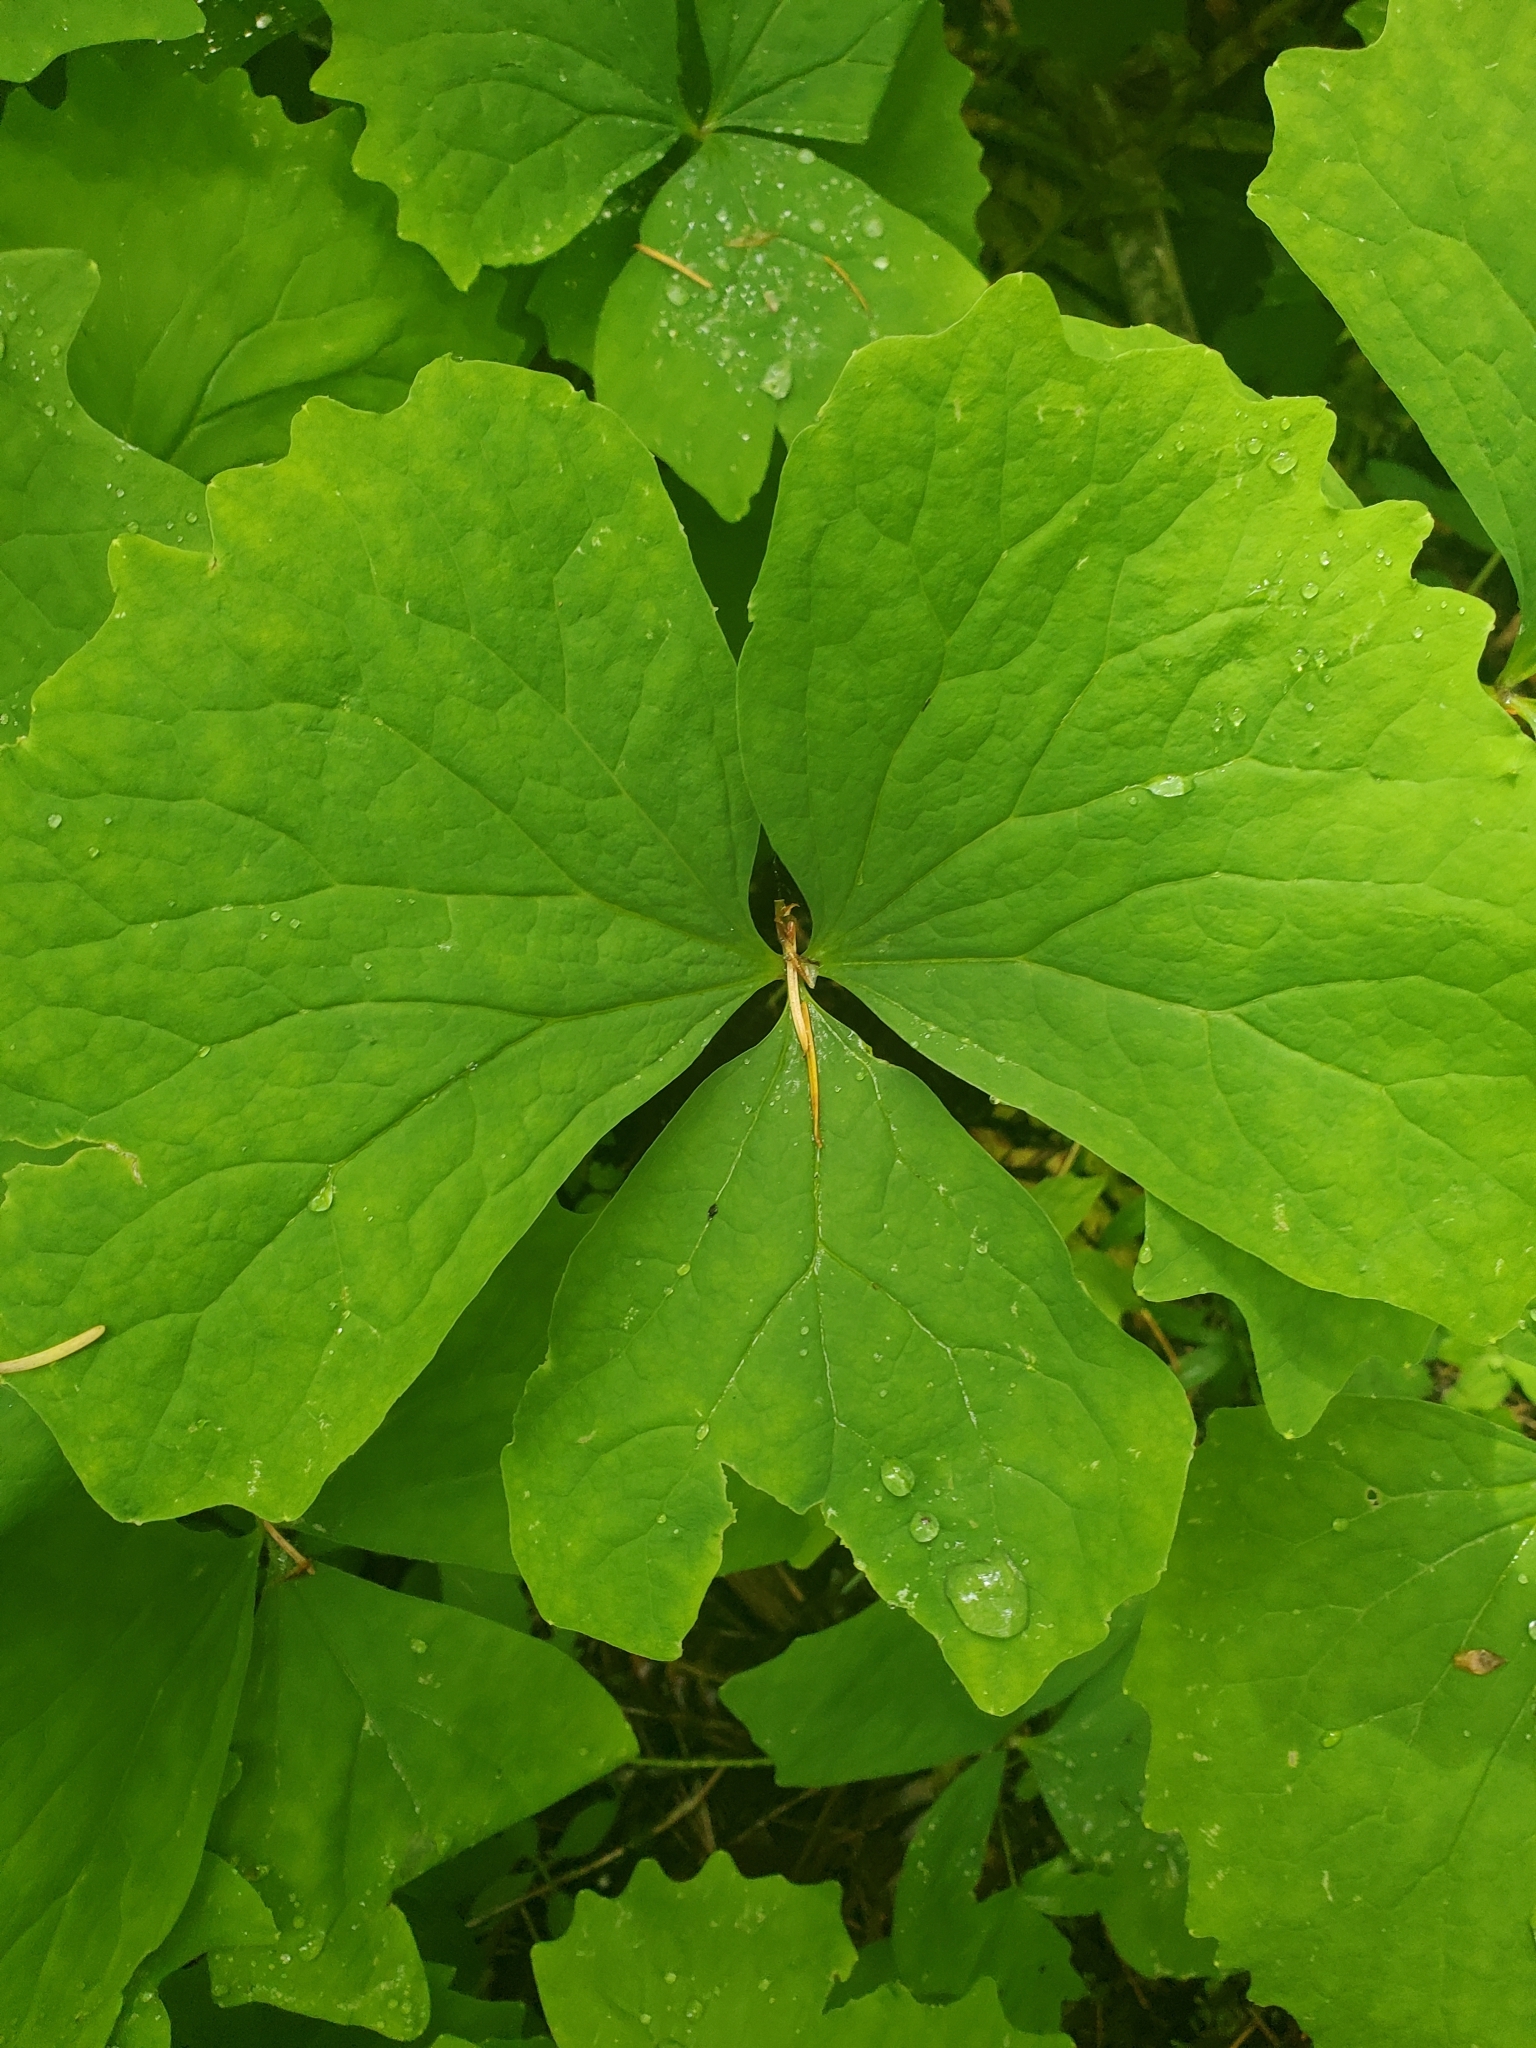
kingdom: Plantae
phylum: Tracheophyta
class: Magnoliopsida
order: Ranunculales
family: Berberidaceae
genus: Achlys
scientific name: Achlys triphylla
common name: Vanilla-leaf
